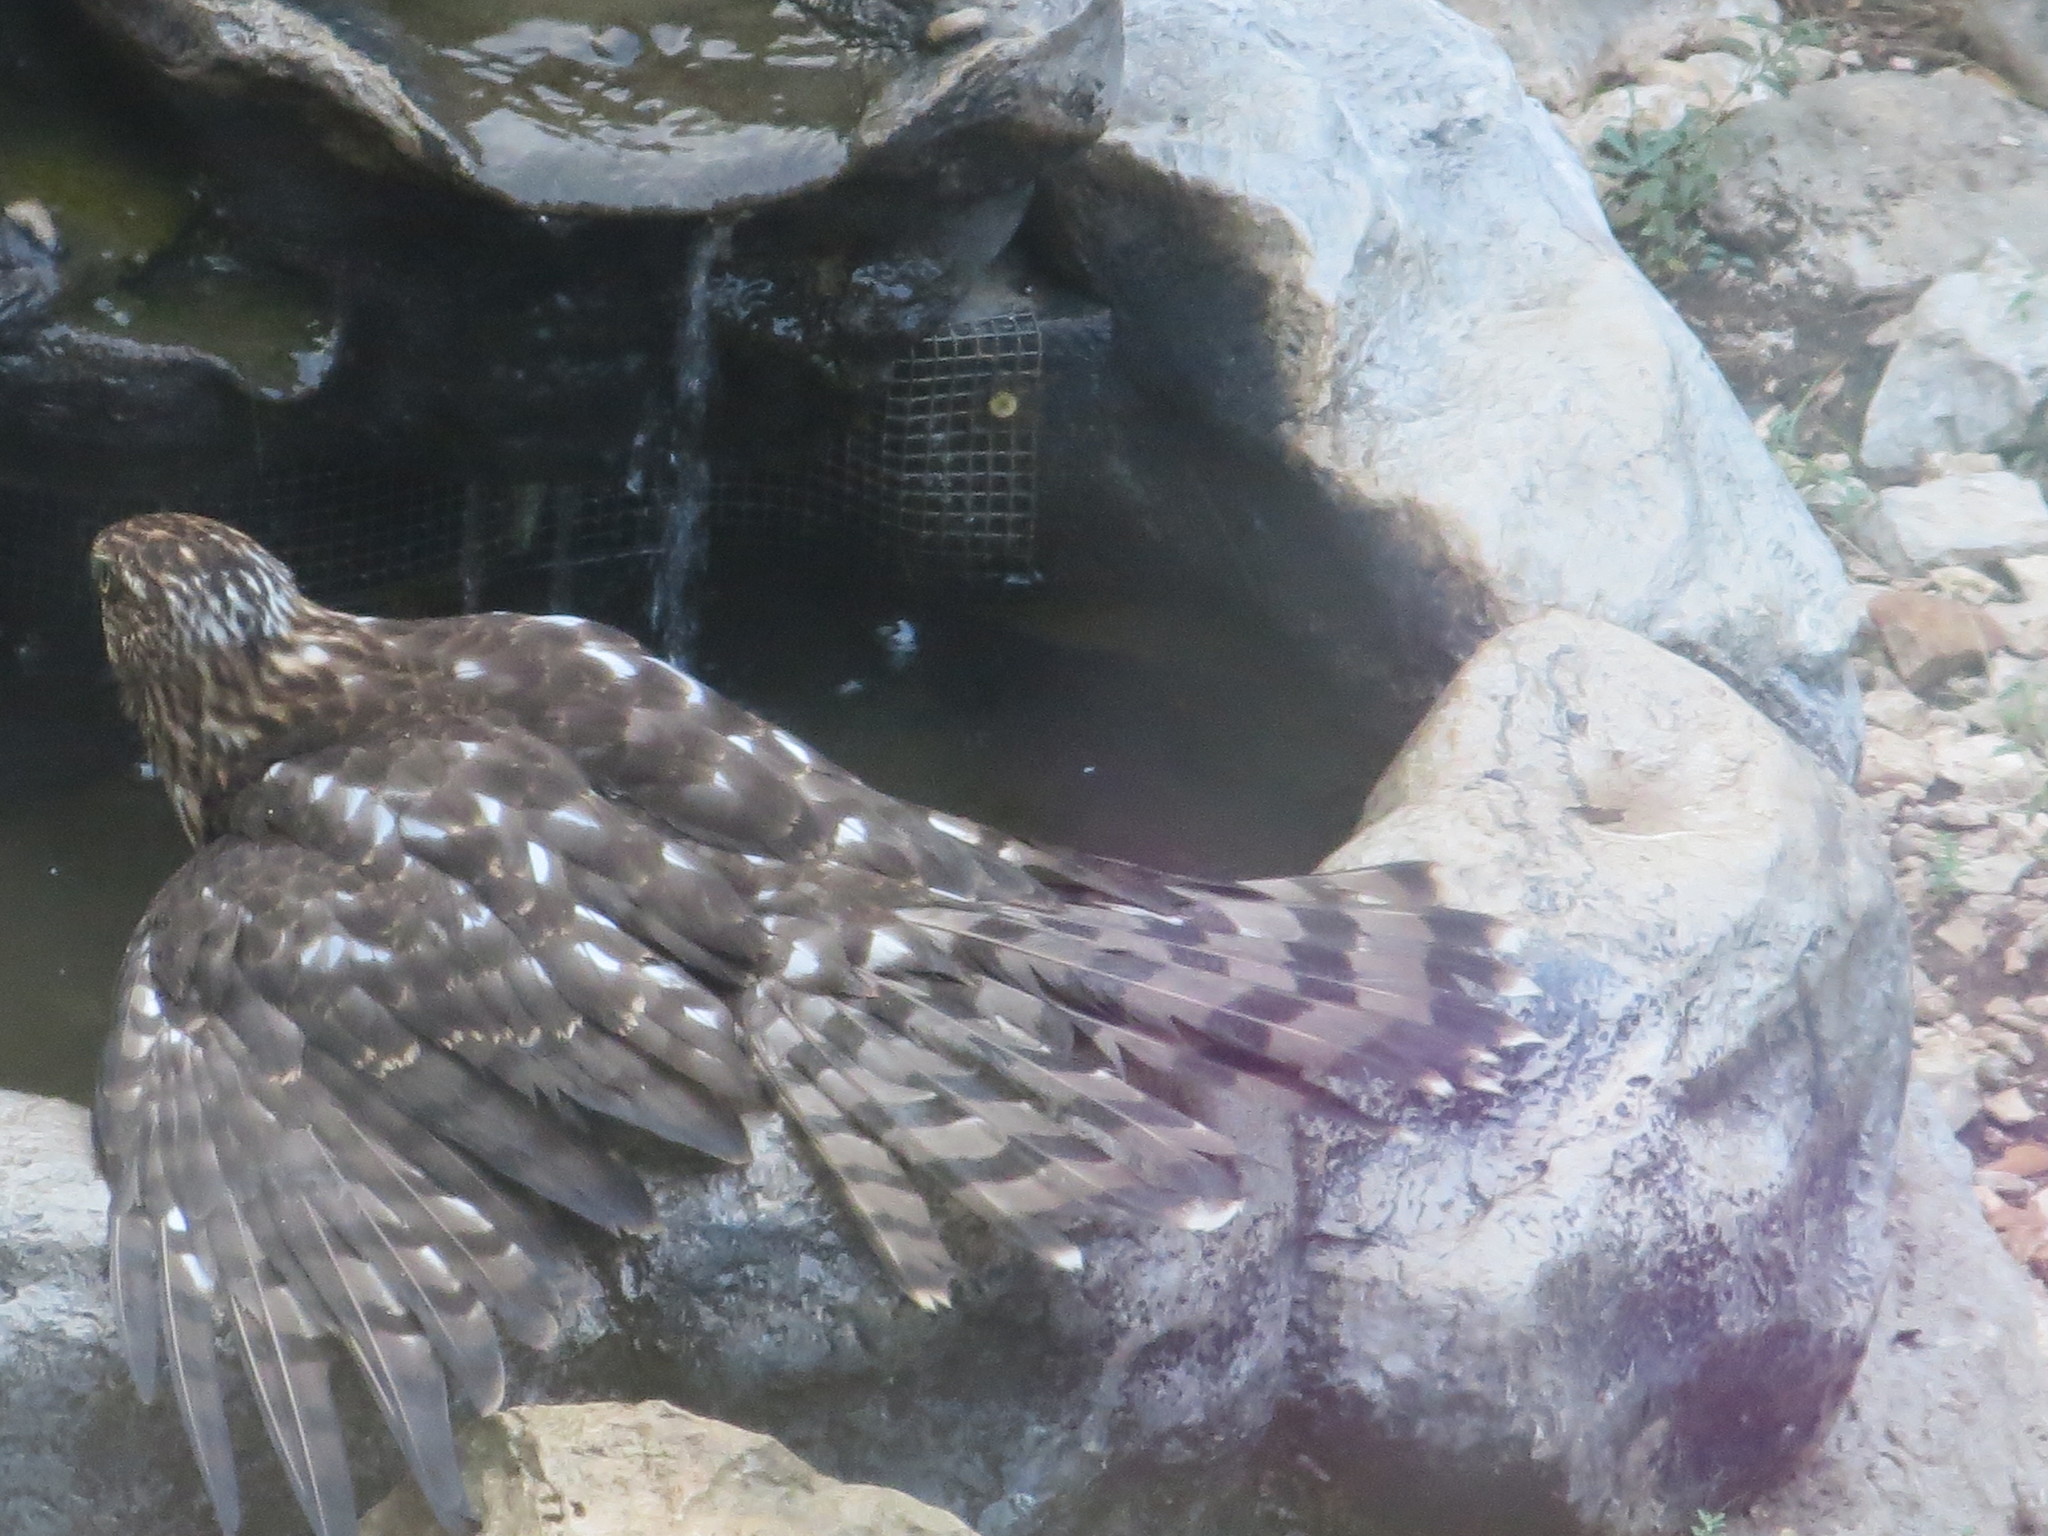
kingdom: Animalia
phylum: Chordata
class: Aves
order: Accipitriformes
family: Accipitridae
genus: Accipiter
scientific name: Accipiter cooperii
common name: Cooper's hawk
